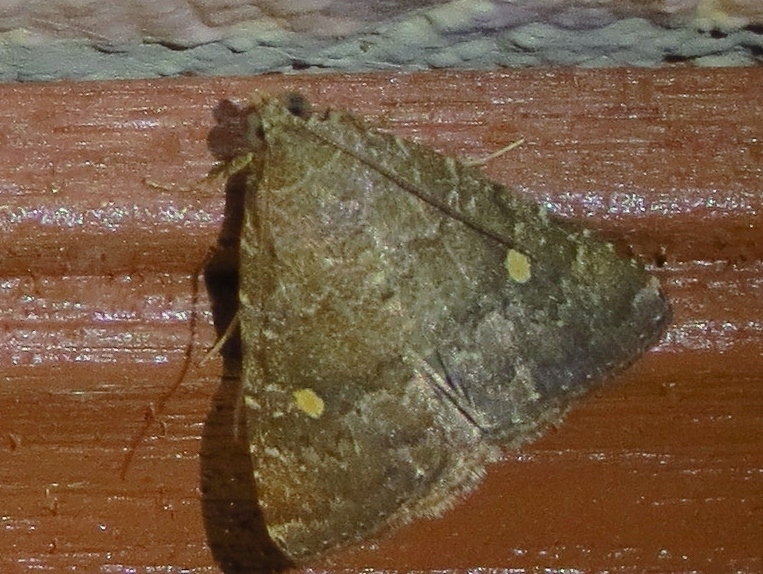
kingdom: Animalia
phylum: Arthropoda
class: Insecta
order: Lepidoptera
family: Noctuidae
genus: Amyna
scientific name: Amyna stricta
